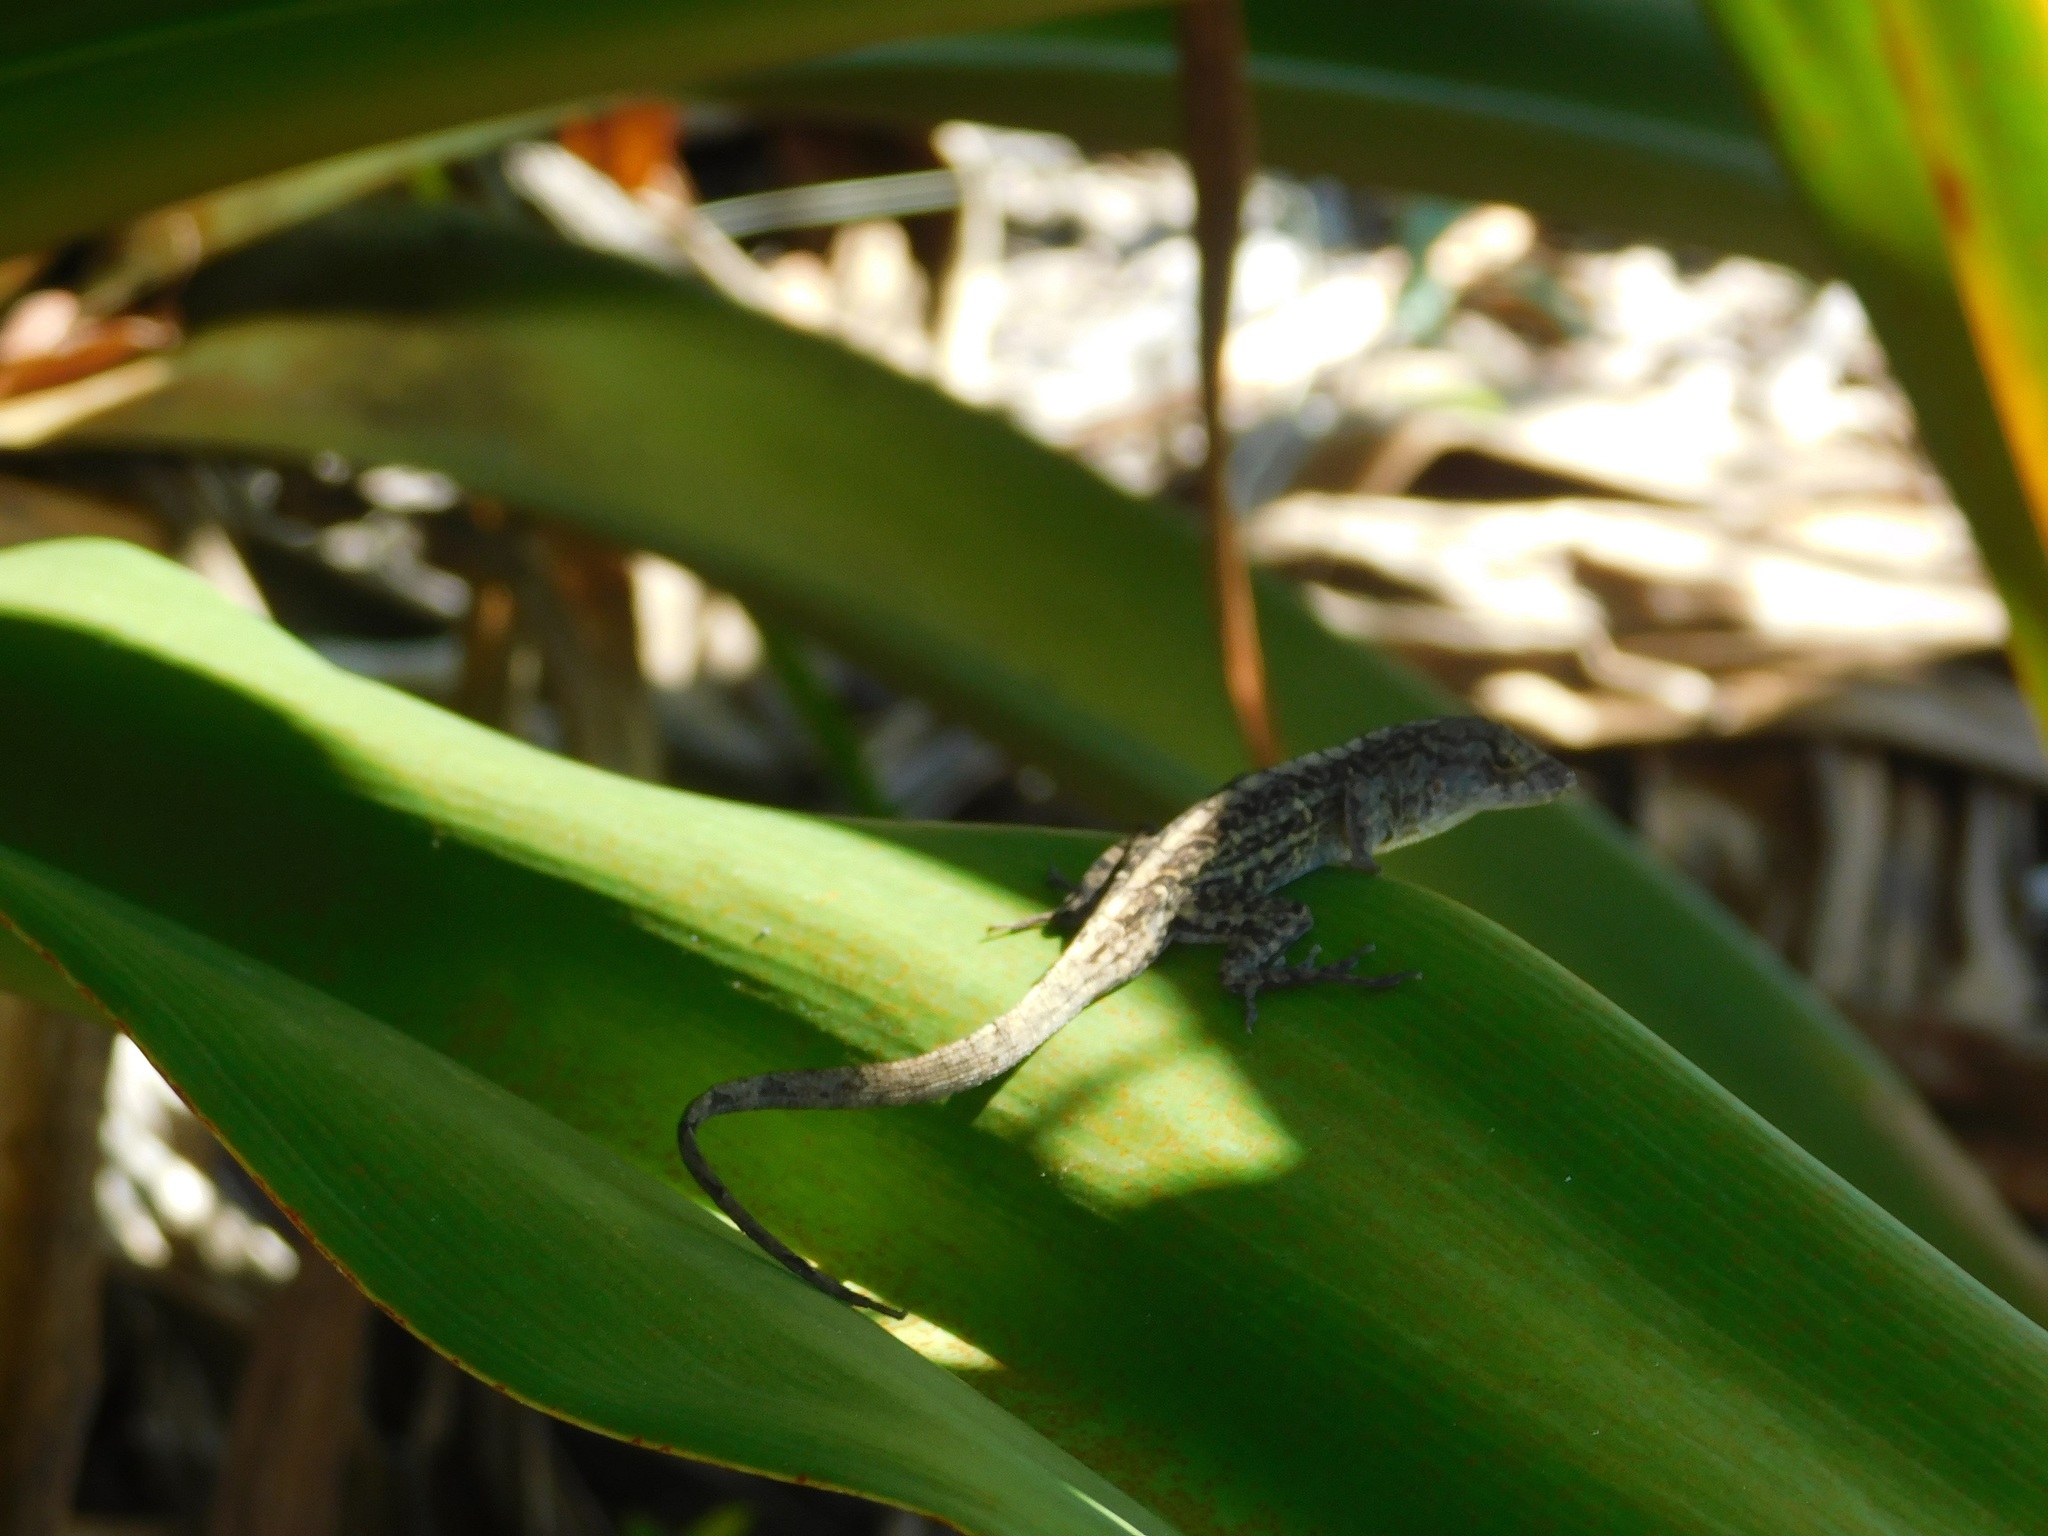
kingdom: Animalia
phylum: Chordata
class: Squamata
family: Dactyloidae
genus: Anolis
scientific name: Anolis sagrei
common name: Brown anole
